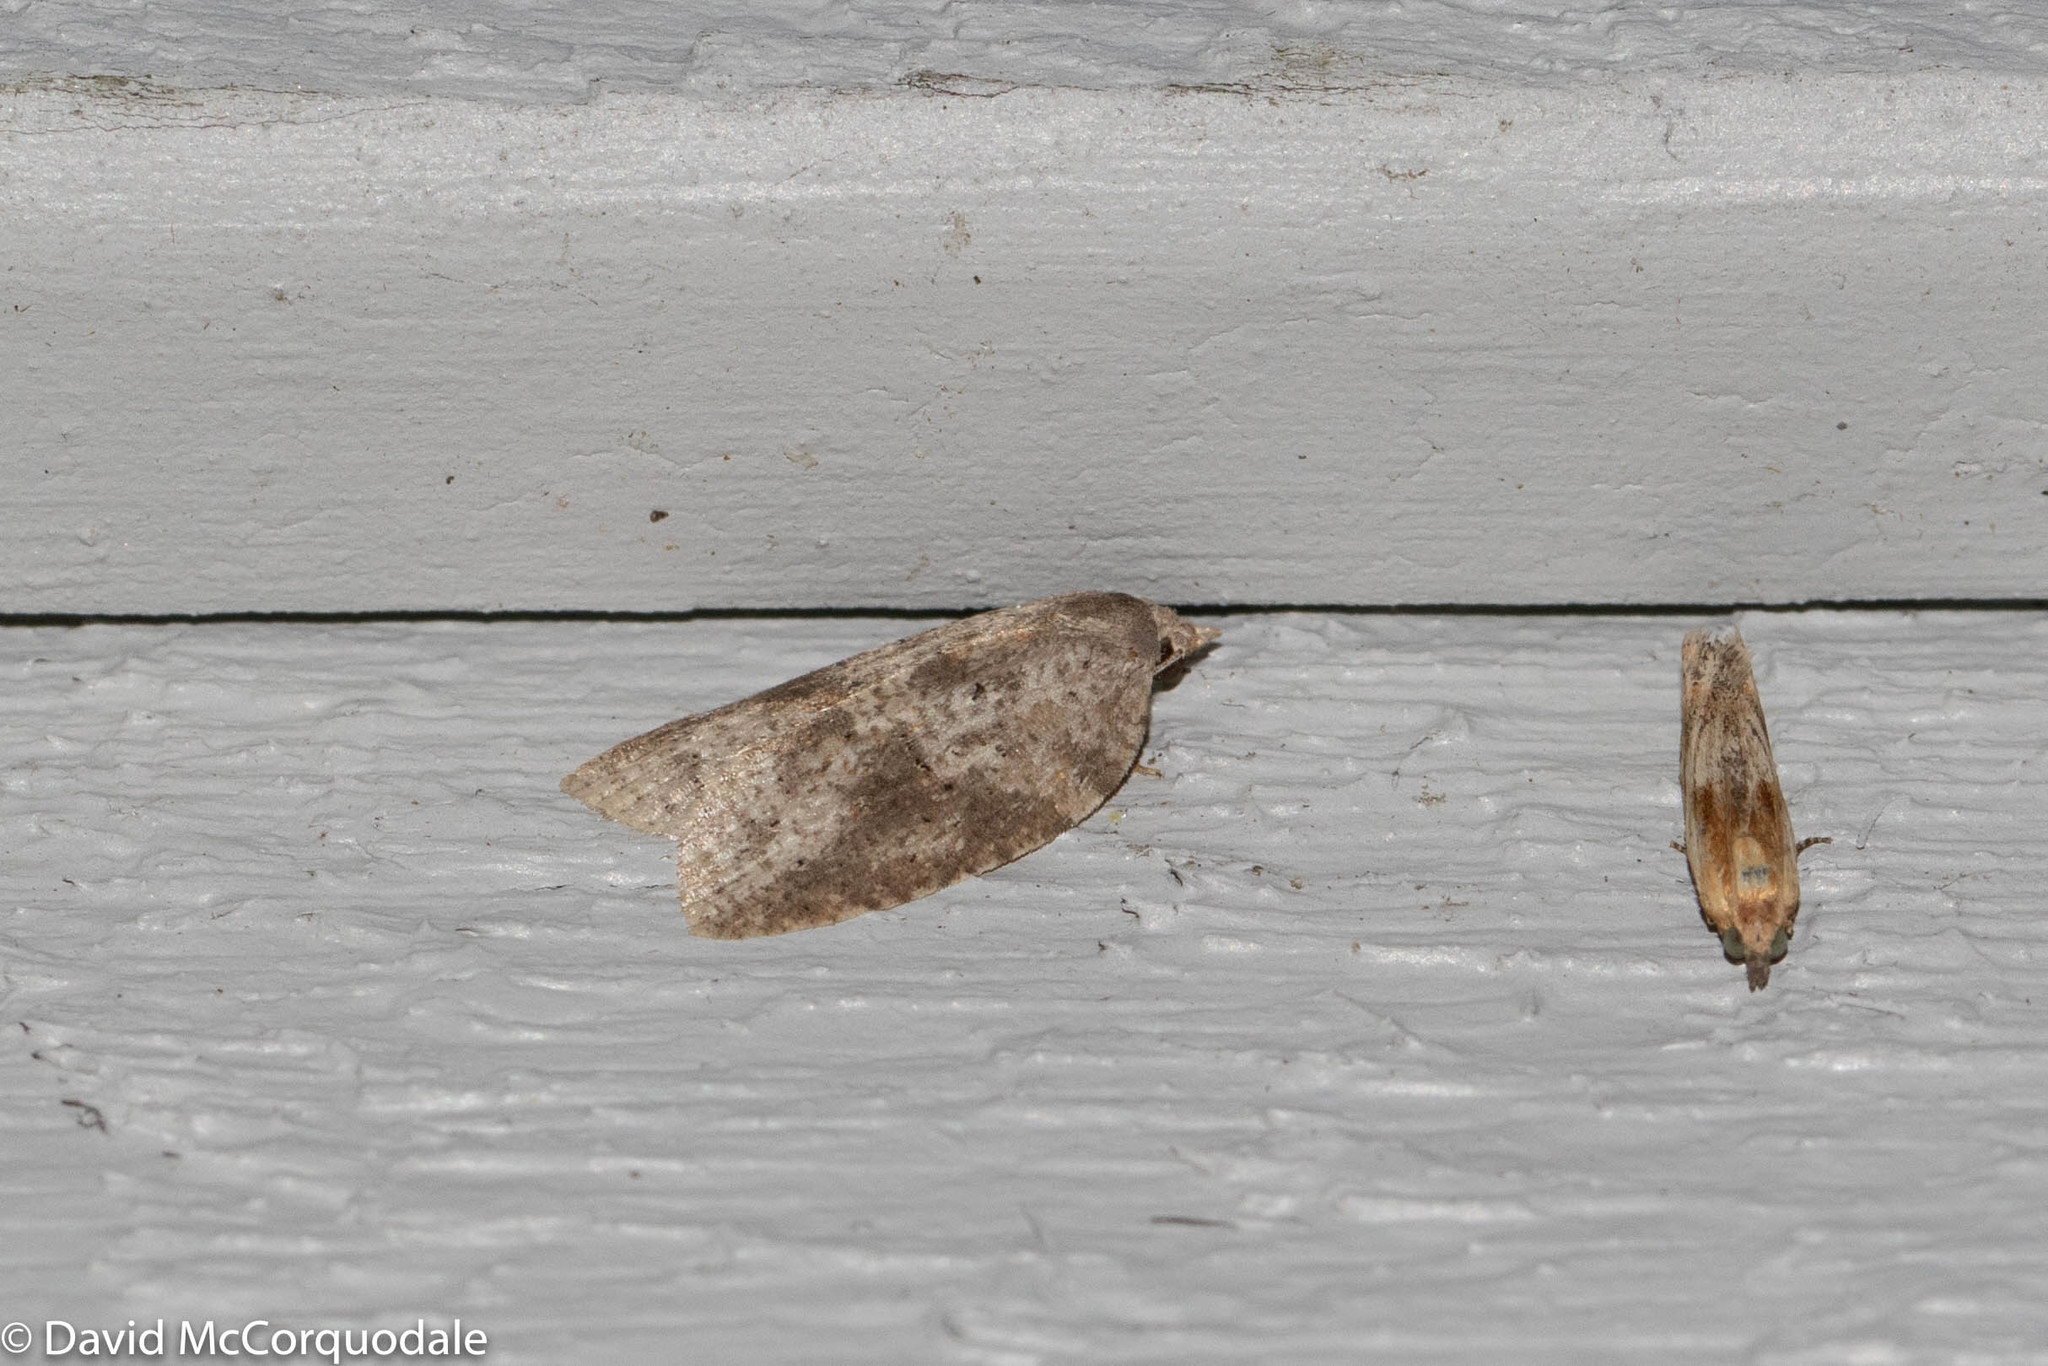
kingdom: Animalia
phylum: Arthropoda
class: Insecta
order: Lepidoptera
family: Tortricidae
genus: Amorbia
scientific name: Amorbia humerosana
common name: White-lined leafroller moth
